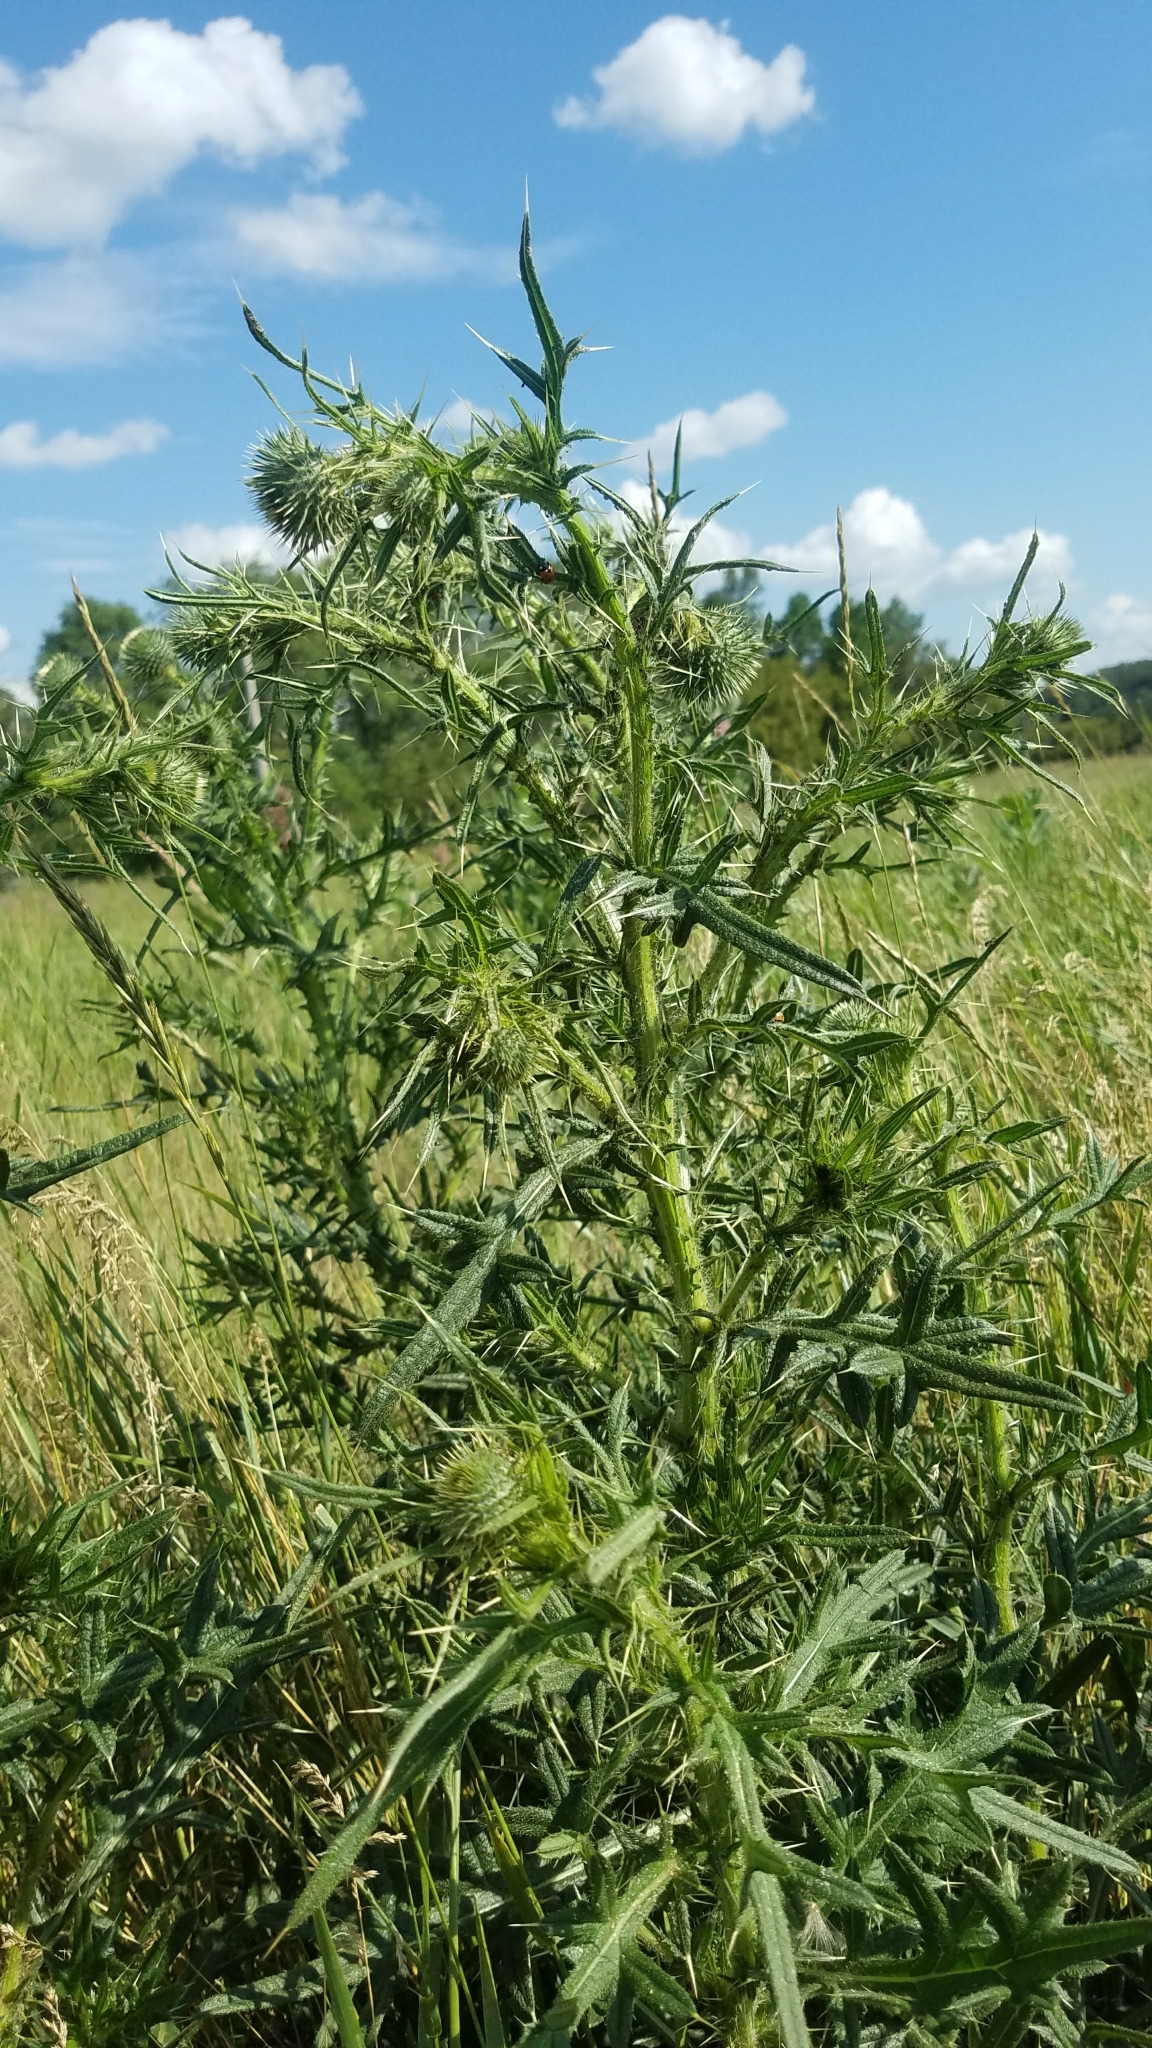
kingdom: Plantae
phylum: Tracheophyta
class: Magnoliopsida
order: Asterales
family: Asteraceae
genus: Cirsium
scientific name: Cirsium vulgare
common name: Bull thistle
